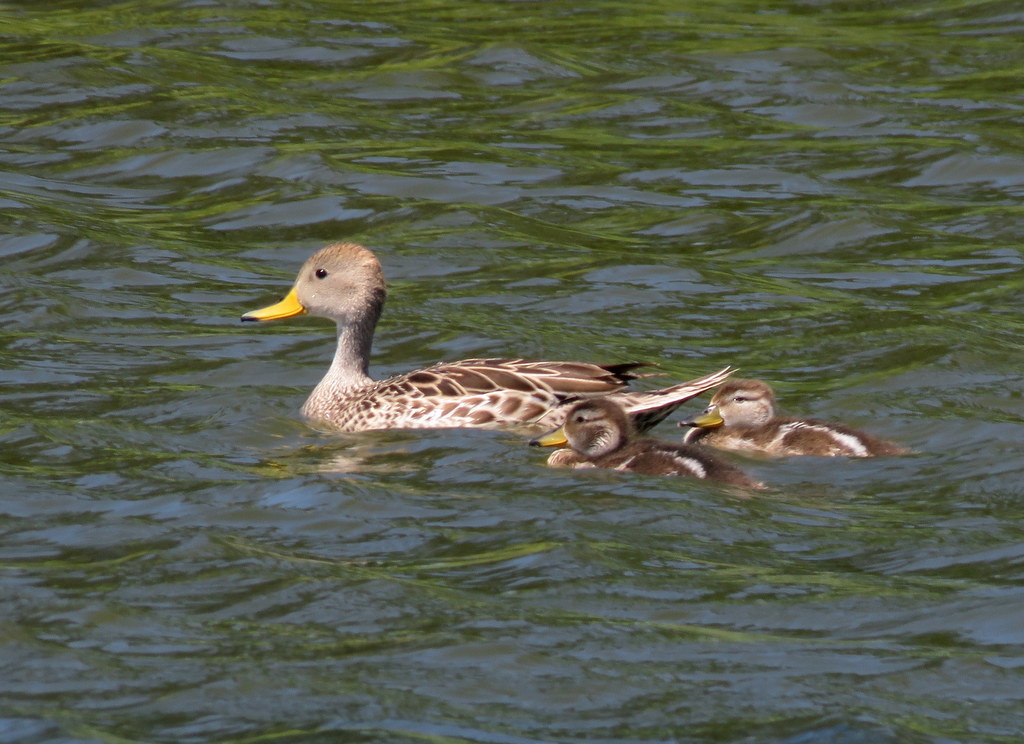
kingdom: Animalia
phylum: Chordata
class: Aves
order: Anseriformes
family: Anatidae
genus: Anas
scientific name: Anas georgica
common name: Yellow-billed pintail
